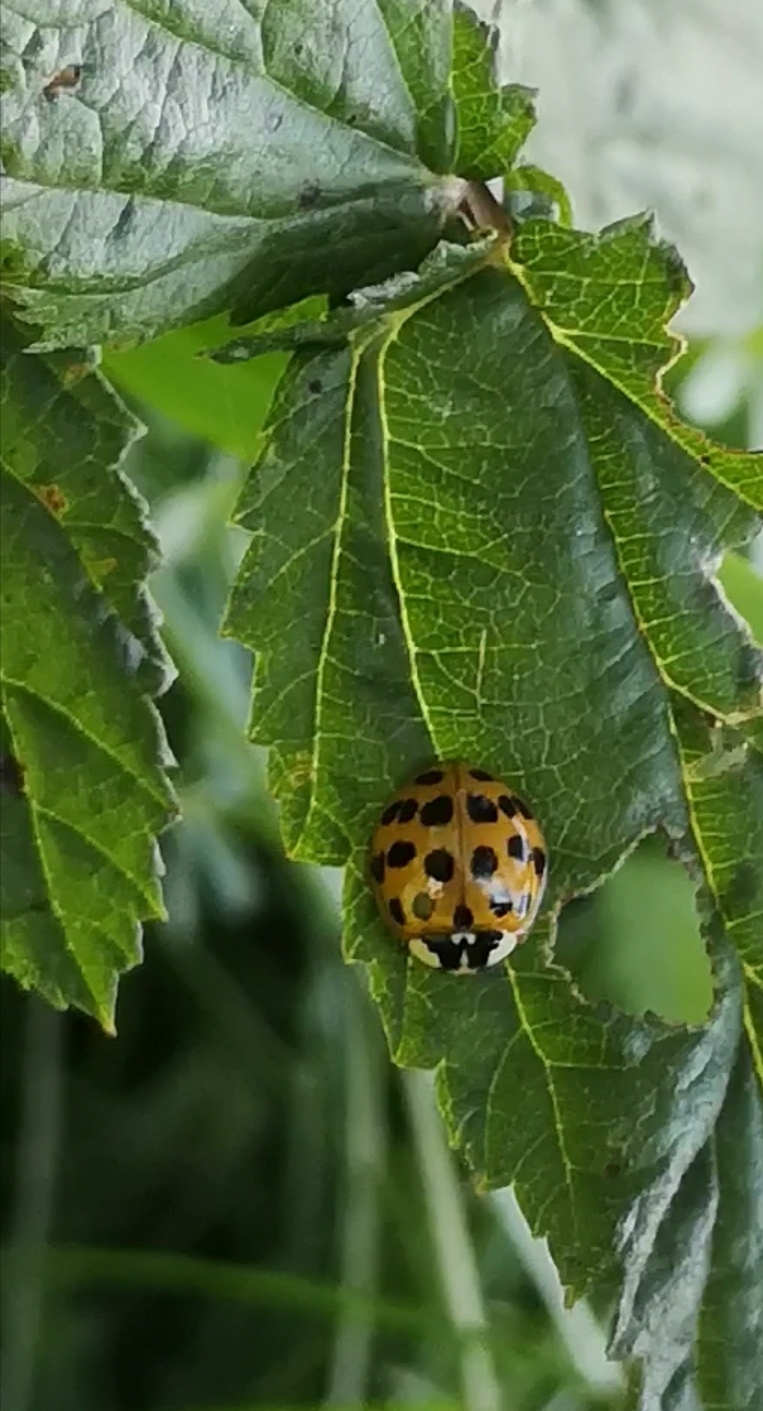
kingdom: Animalia
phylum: Arthropoda
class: Insecta
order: Coleoptera
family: Coccinellidae
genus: Harmonia
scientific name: Harmonia axyridis
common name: Harlequin ladybird
